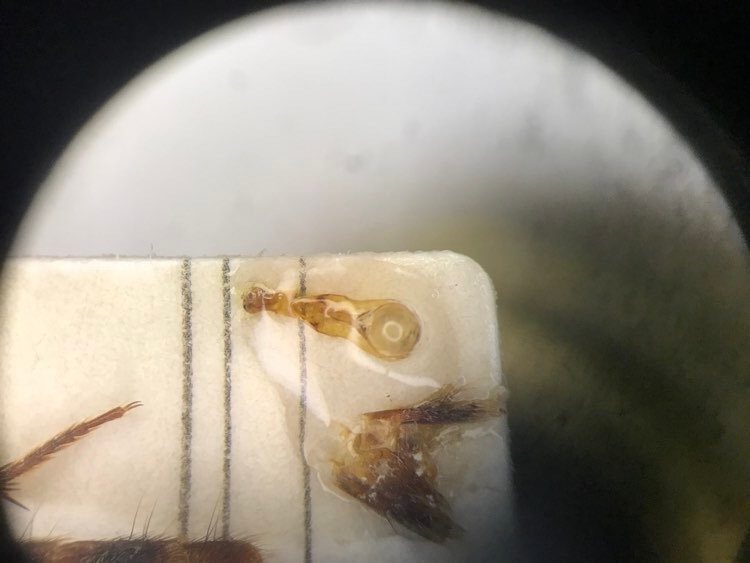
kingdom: Animalia
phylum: Arthropoda
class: Insecta
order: Coleoptera
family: Staphylinidae
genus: Platydracus
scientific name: Platydracus cinnamopterus
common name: Cinnamon rove beetle
